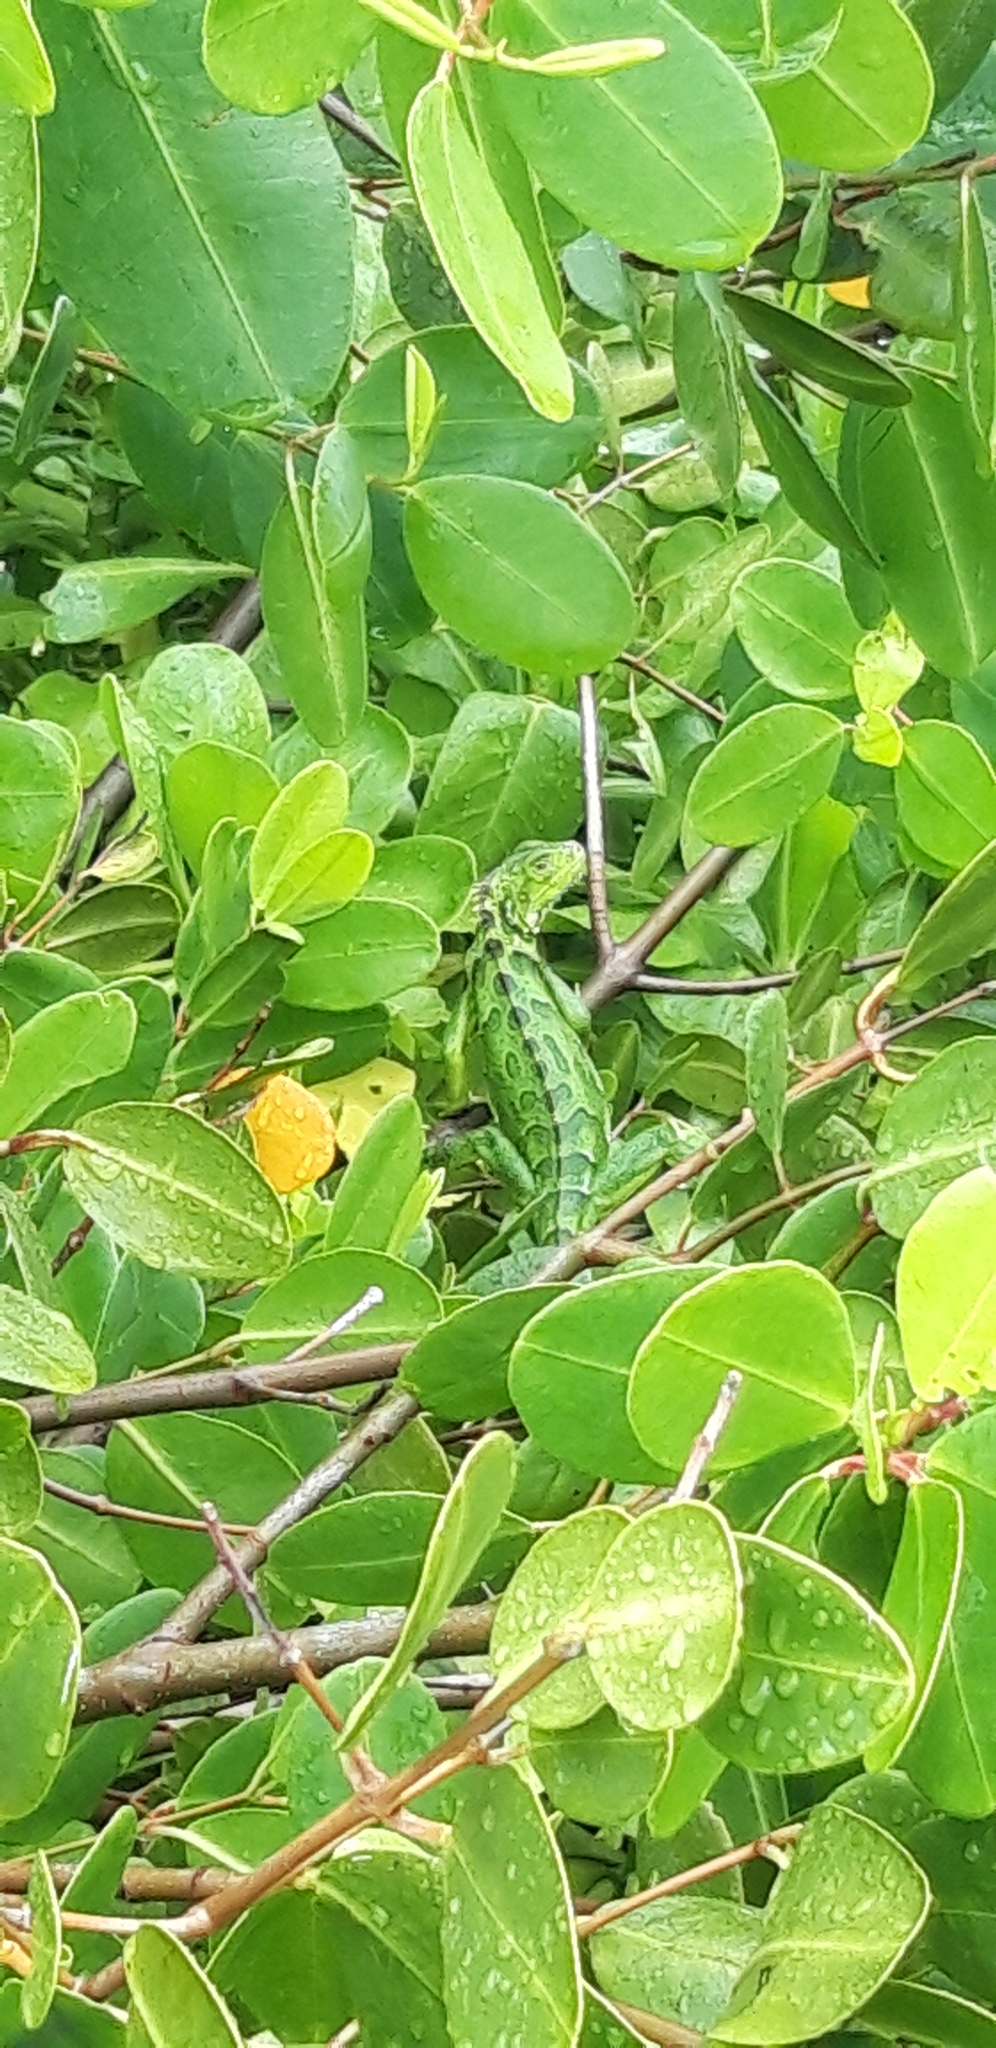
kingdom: Animalia
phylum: Chordata
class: Squamata
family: Iguanidae
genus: Iguana
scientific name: Iguana iguana
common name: Green iguana
